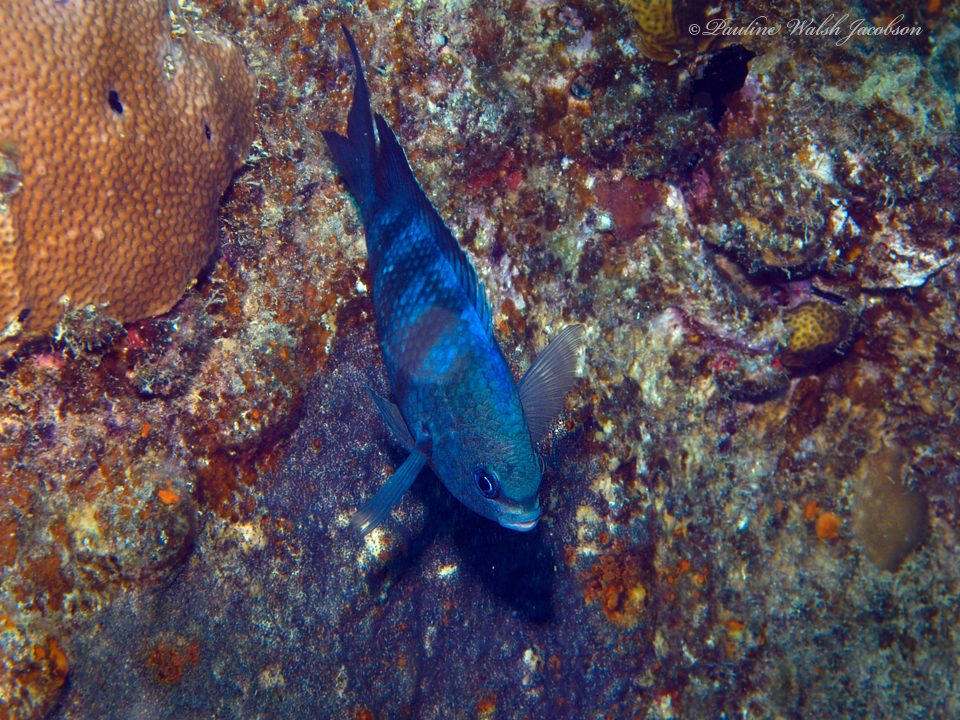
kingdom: Animalia
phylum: Chordata
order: Perciformes
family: Pomacentridae
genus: Abudefduf
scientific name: Abudefduf saxatilis
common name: Sergeant major
